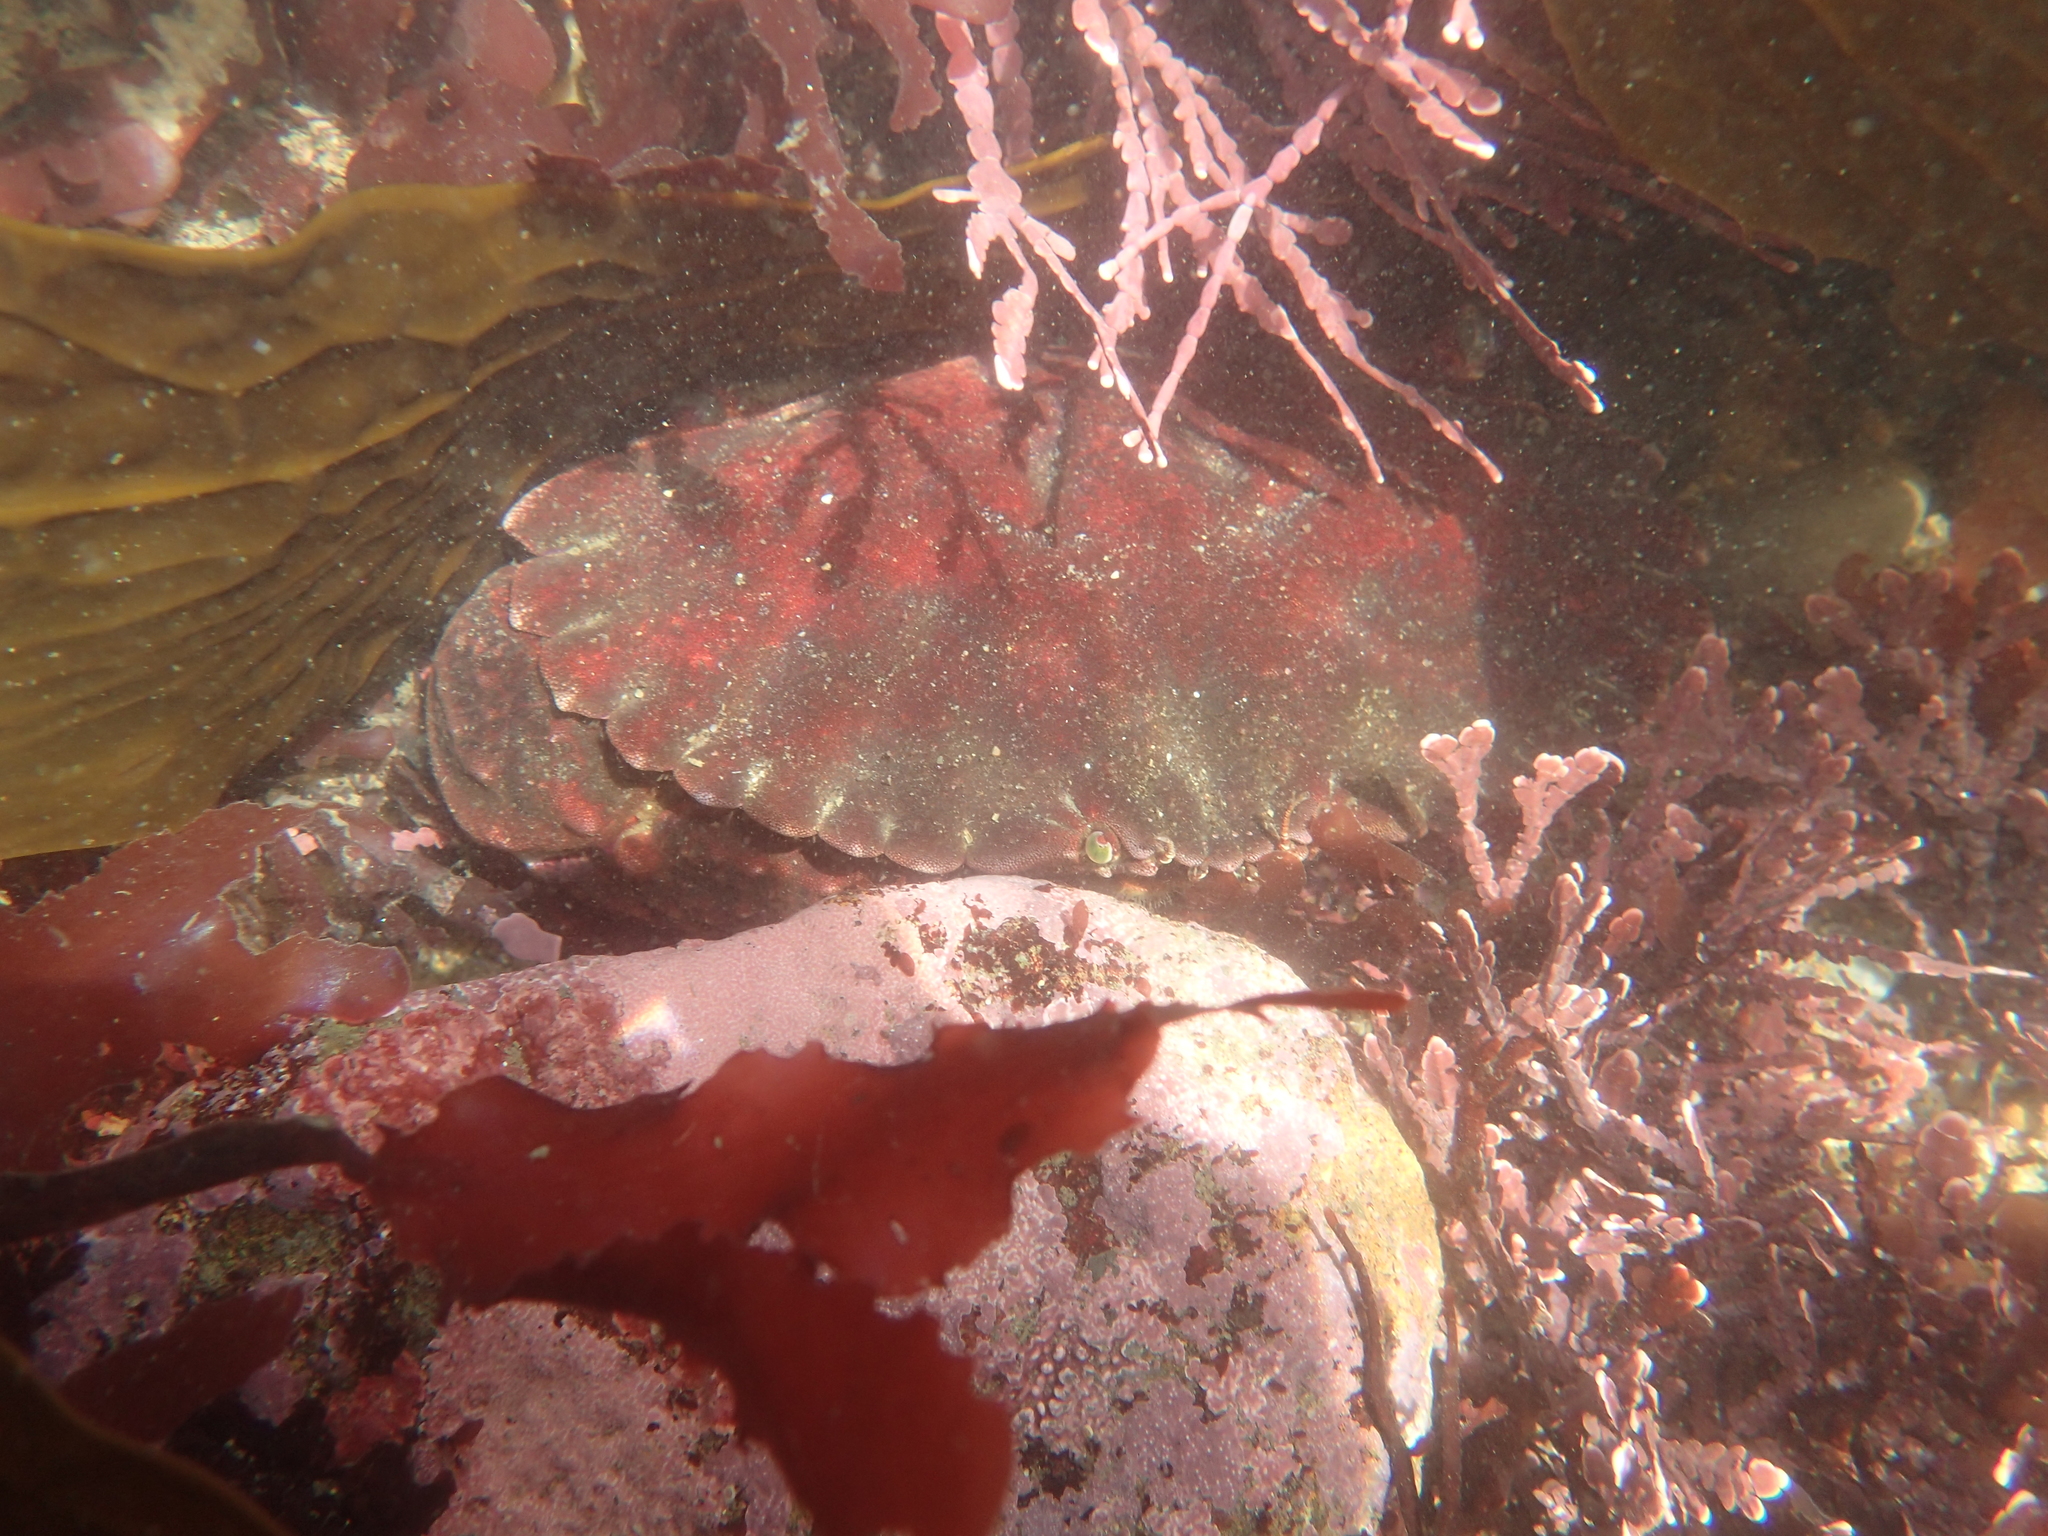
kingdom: Animalia
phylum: Arthropoda
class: Malacostraca
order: Decapoda
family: Cancridae
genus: Cancer
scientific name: Cancer productus
